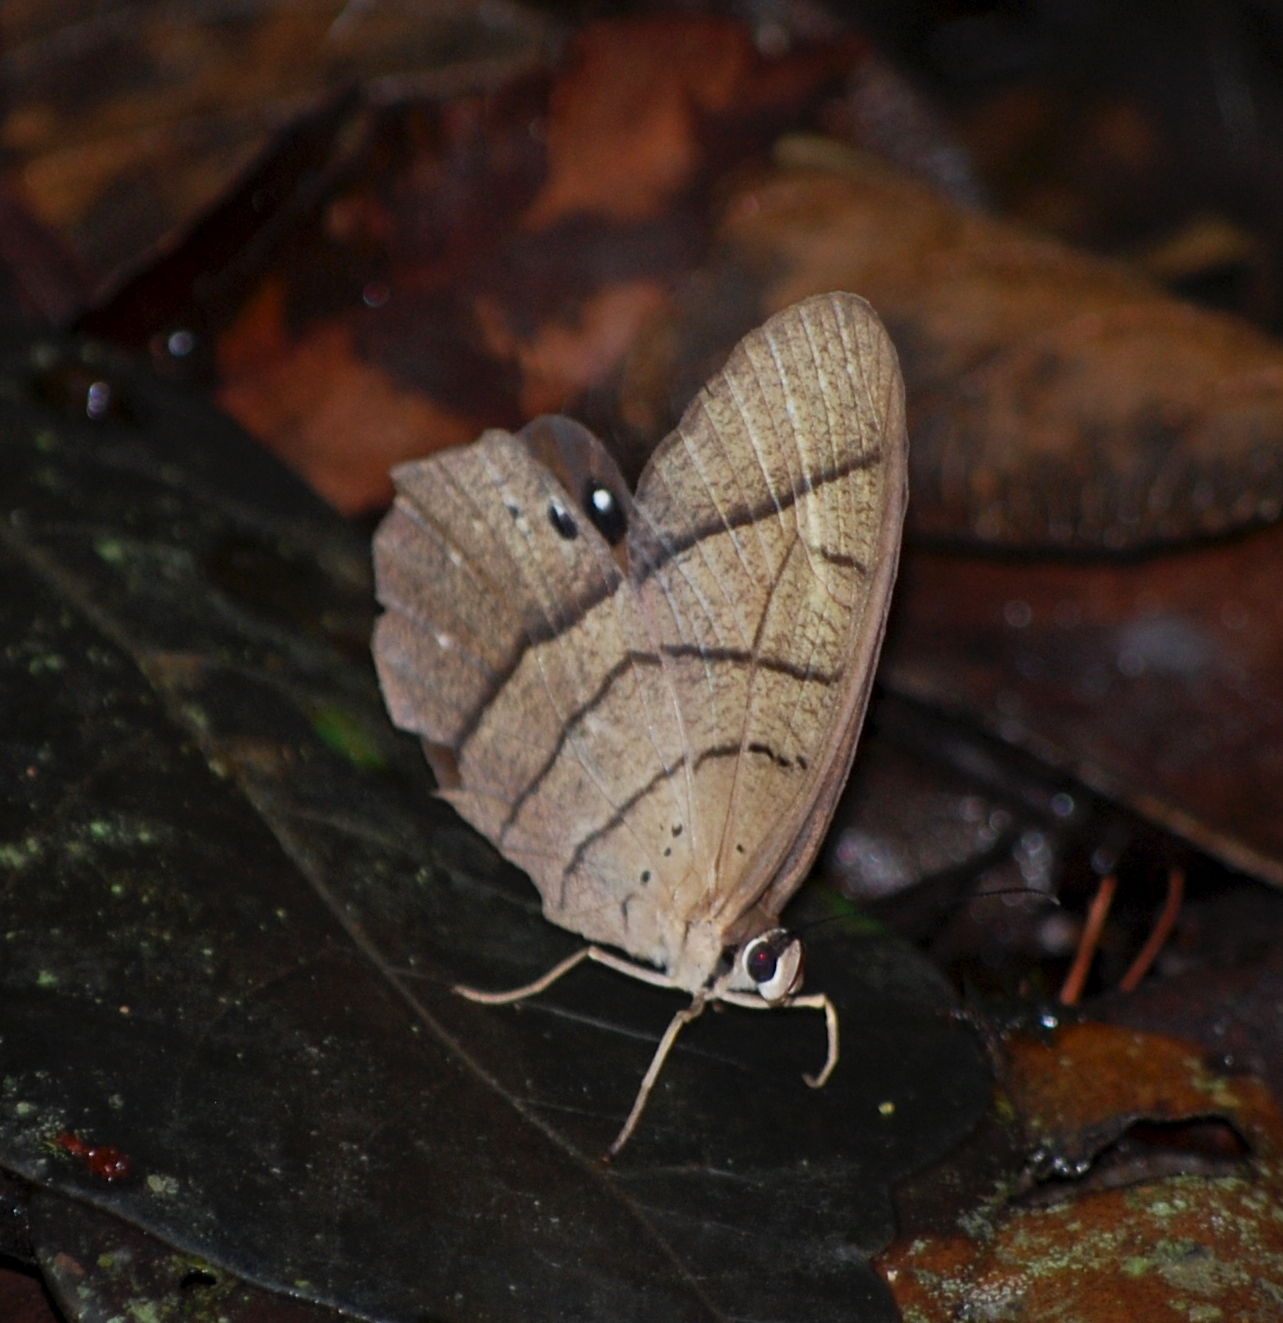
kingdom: Animalia
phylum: Arthropoda
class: Insecta
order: Lepidoptera
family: Nymphalidae
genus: Pierella
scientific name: Pierella lena
